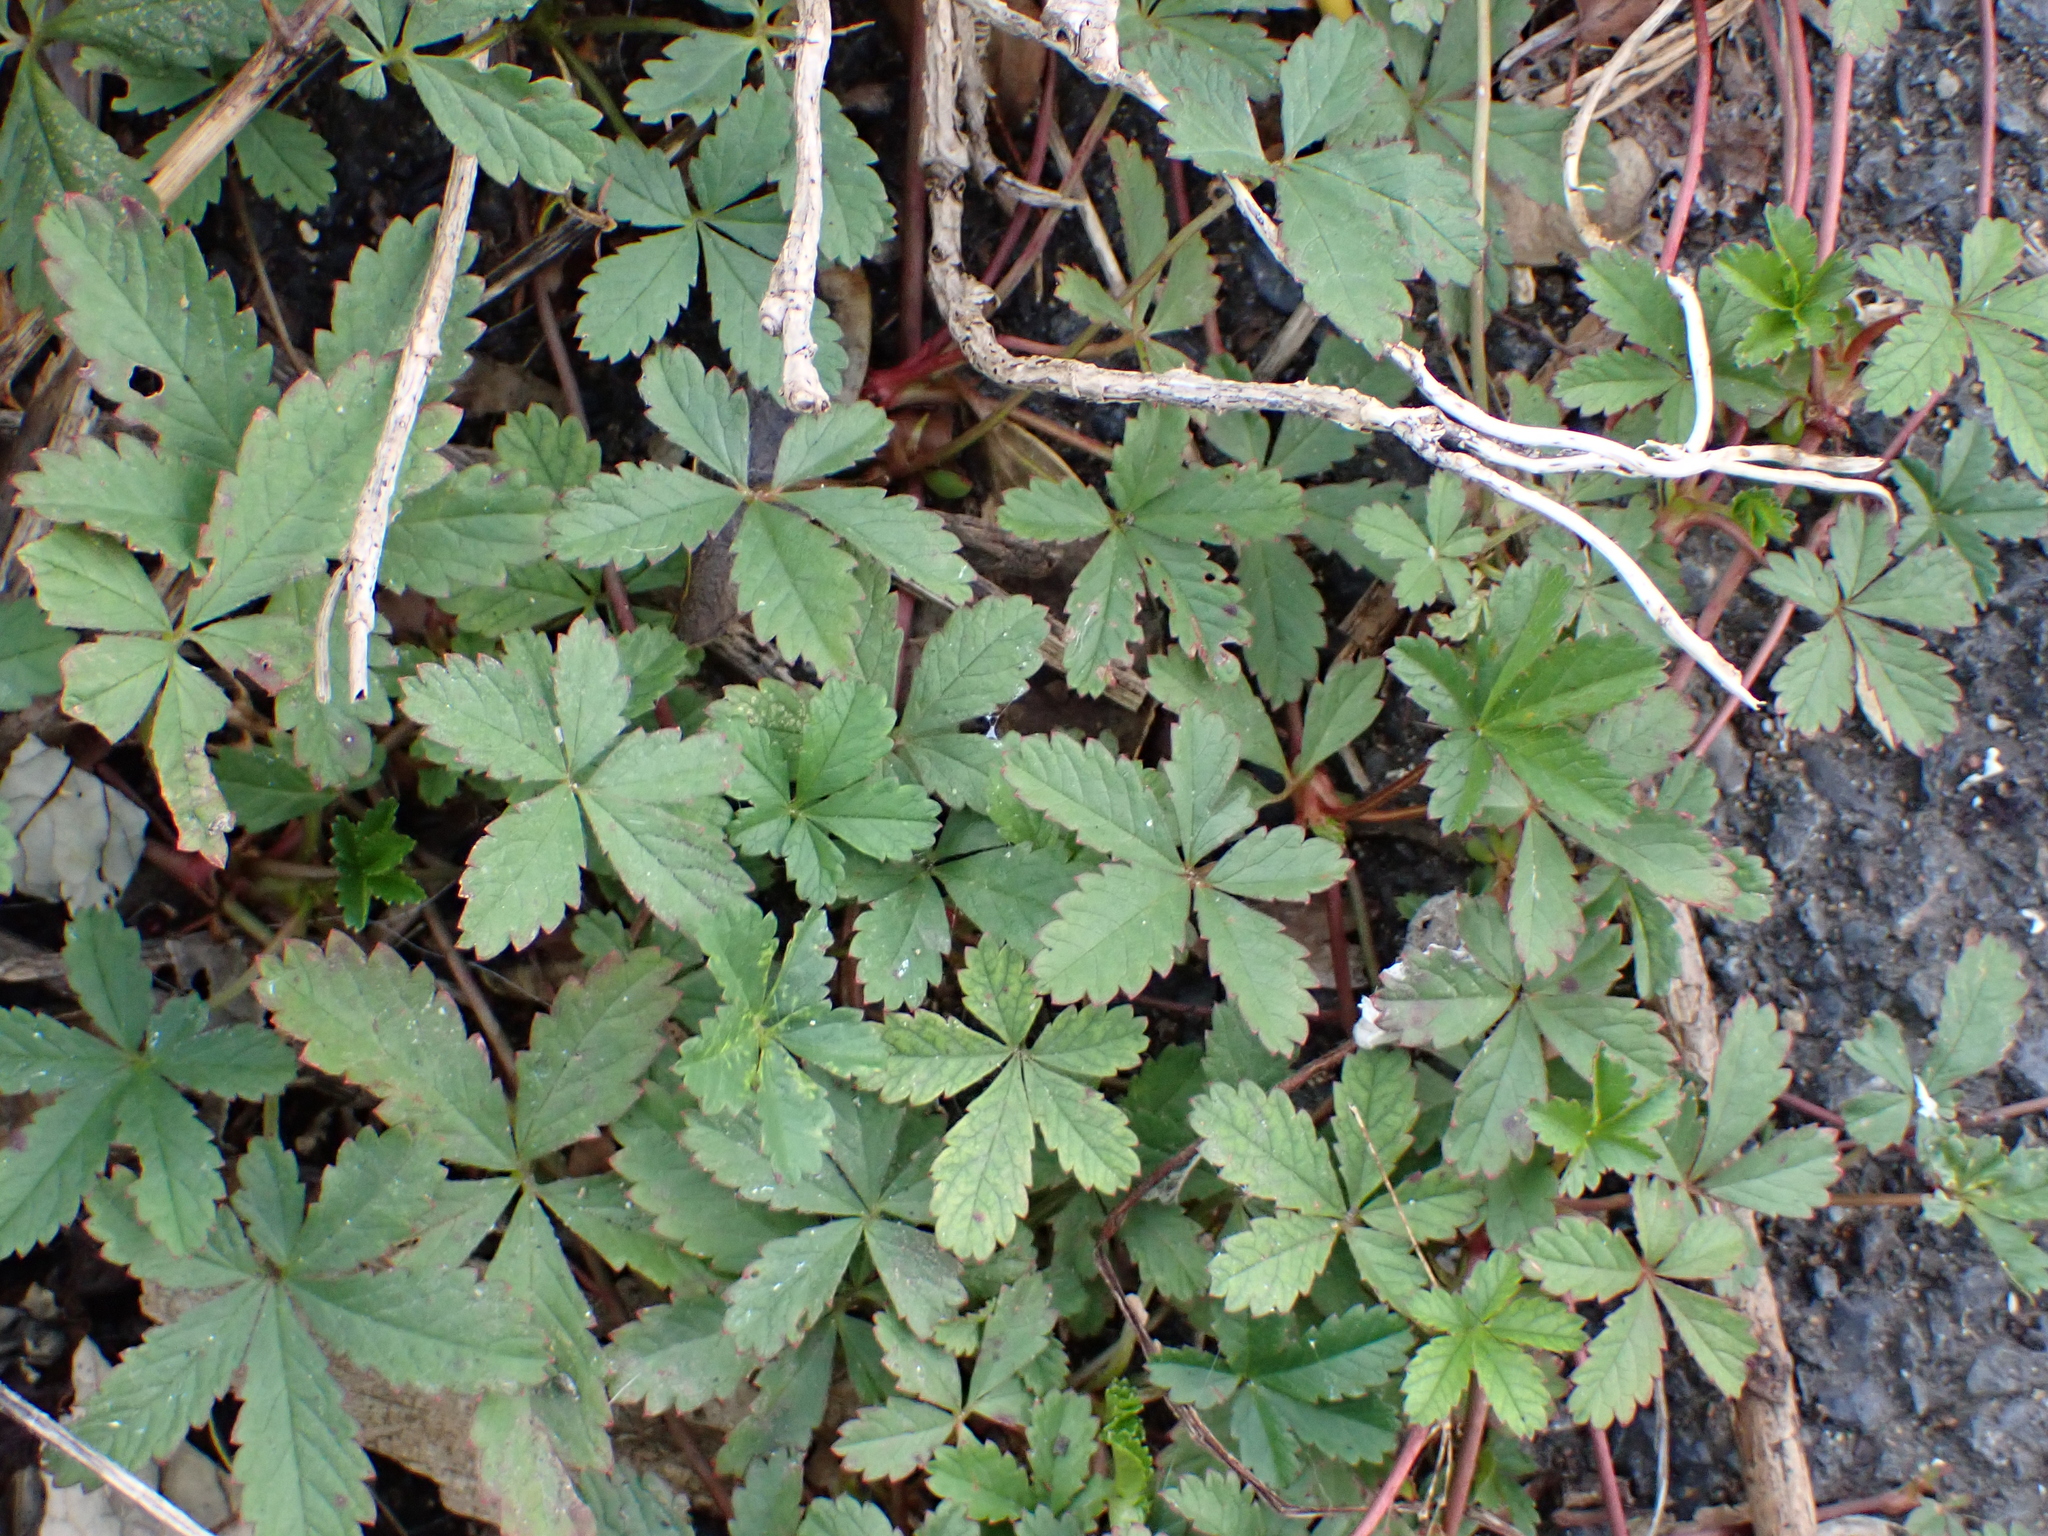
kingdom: Plantae
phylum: Tracheophyta
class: Magnoliopsida
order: Rosales
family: Rosaceae
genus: Potentilla
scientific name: Potentilla reptans
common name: Creeping cinquefoil
